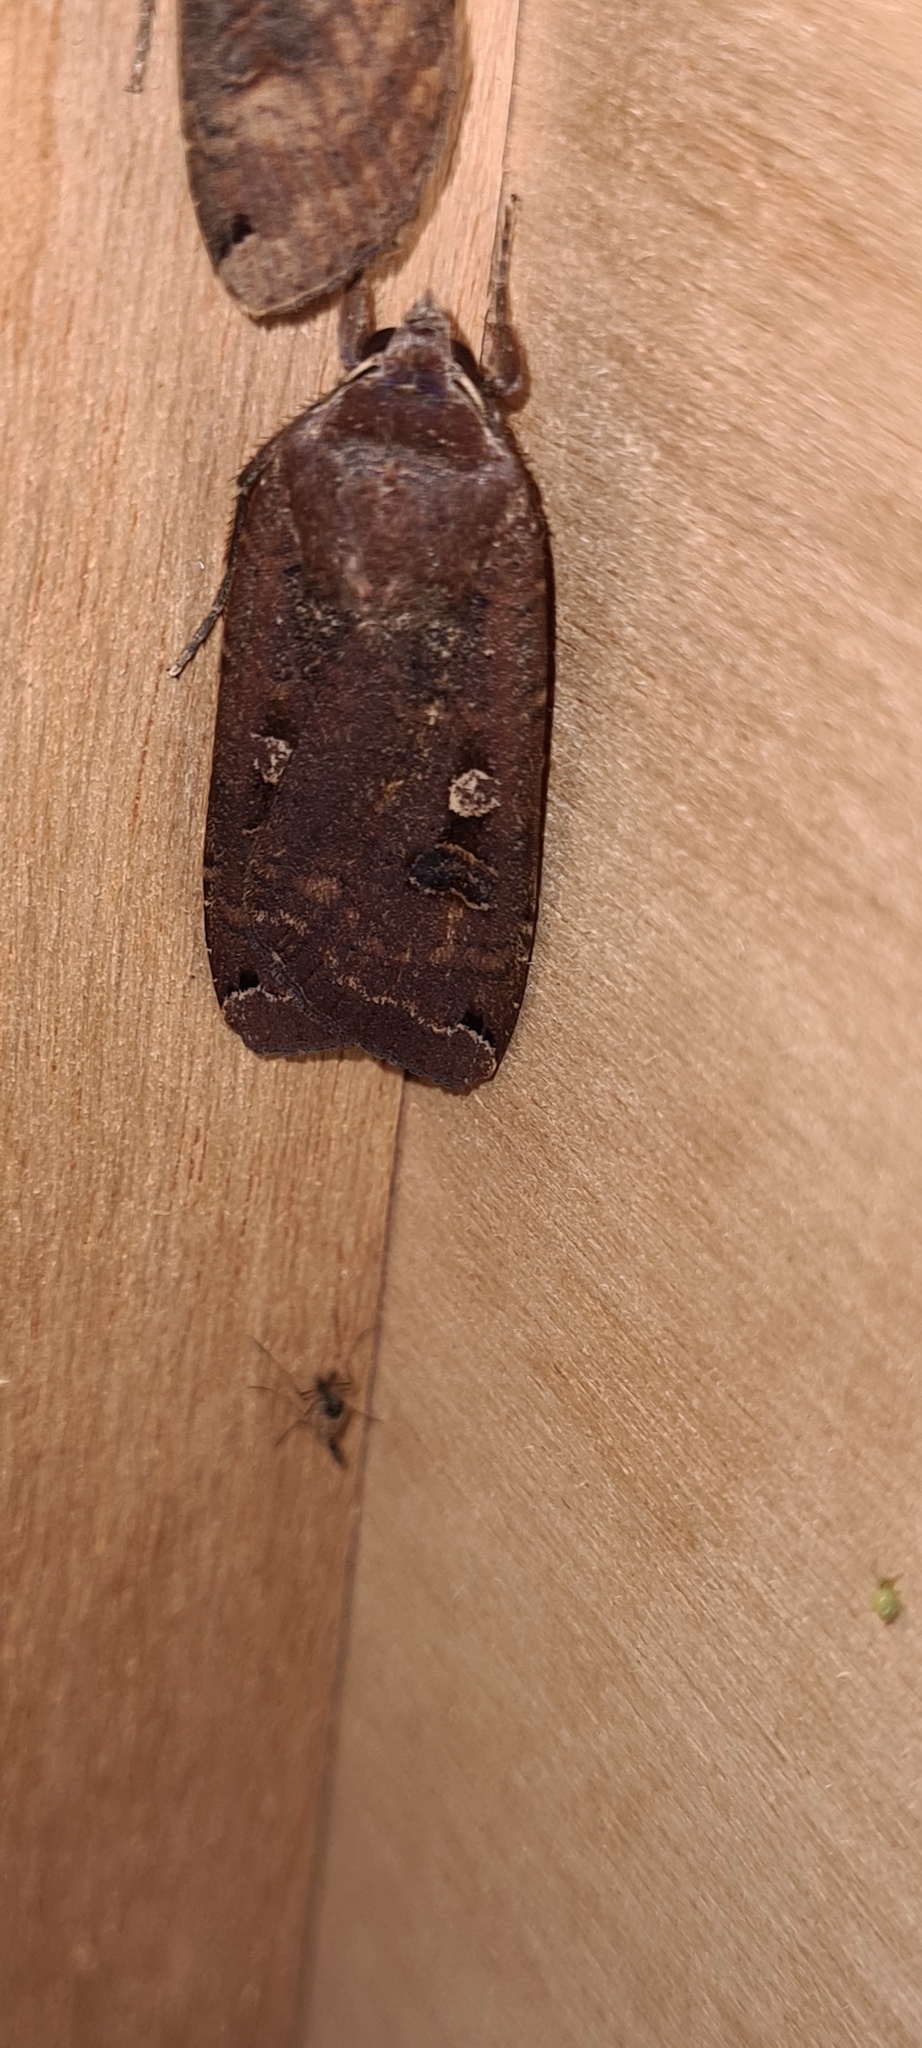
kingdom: Animalia
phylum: Arthropoda
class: Insecta
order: Lepidoptera
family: Noctuidae
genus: Noctua
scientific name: Noctua pronuba
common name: Large yellow underwing
